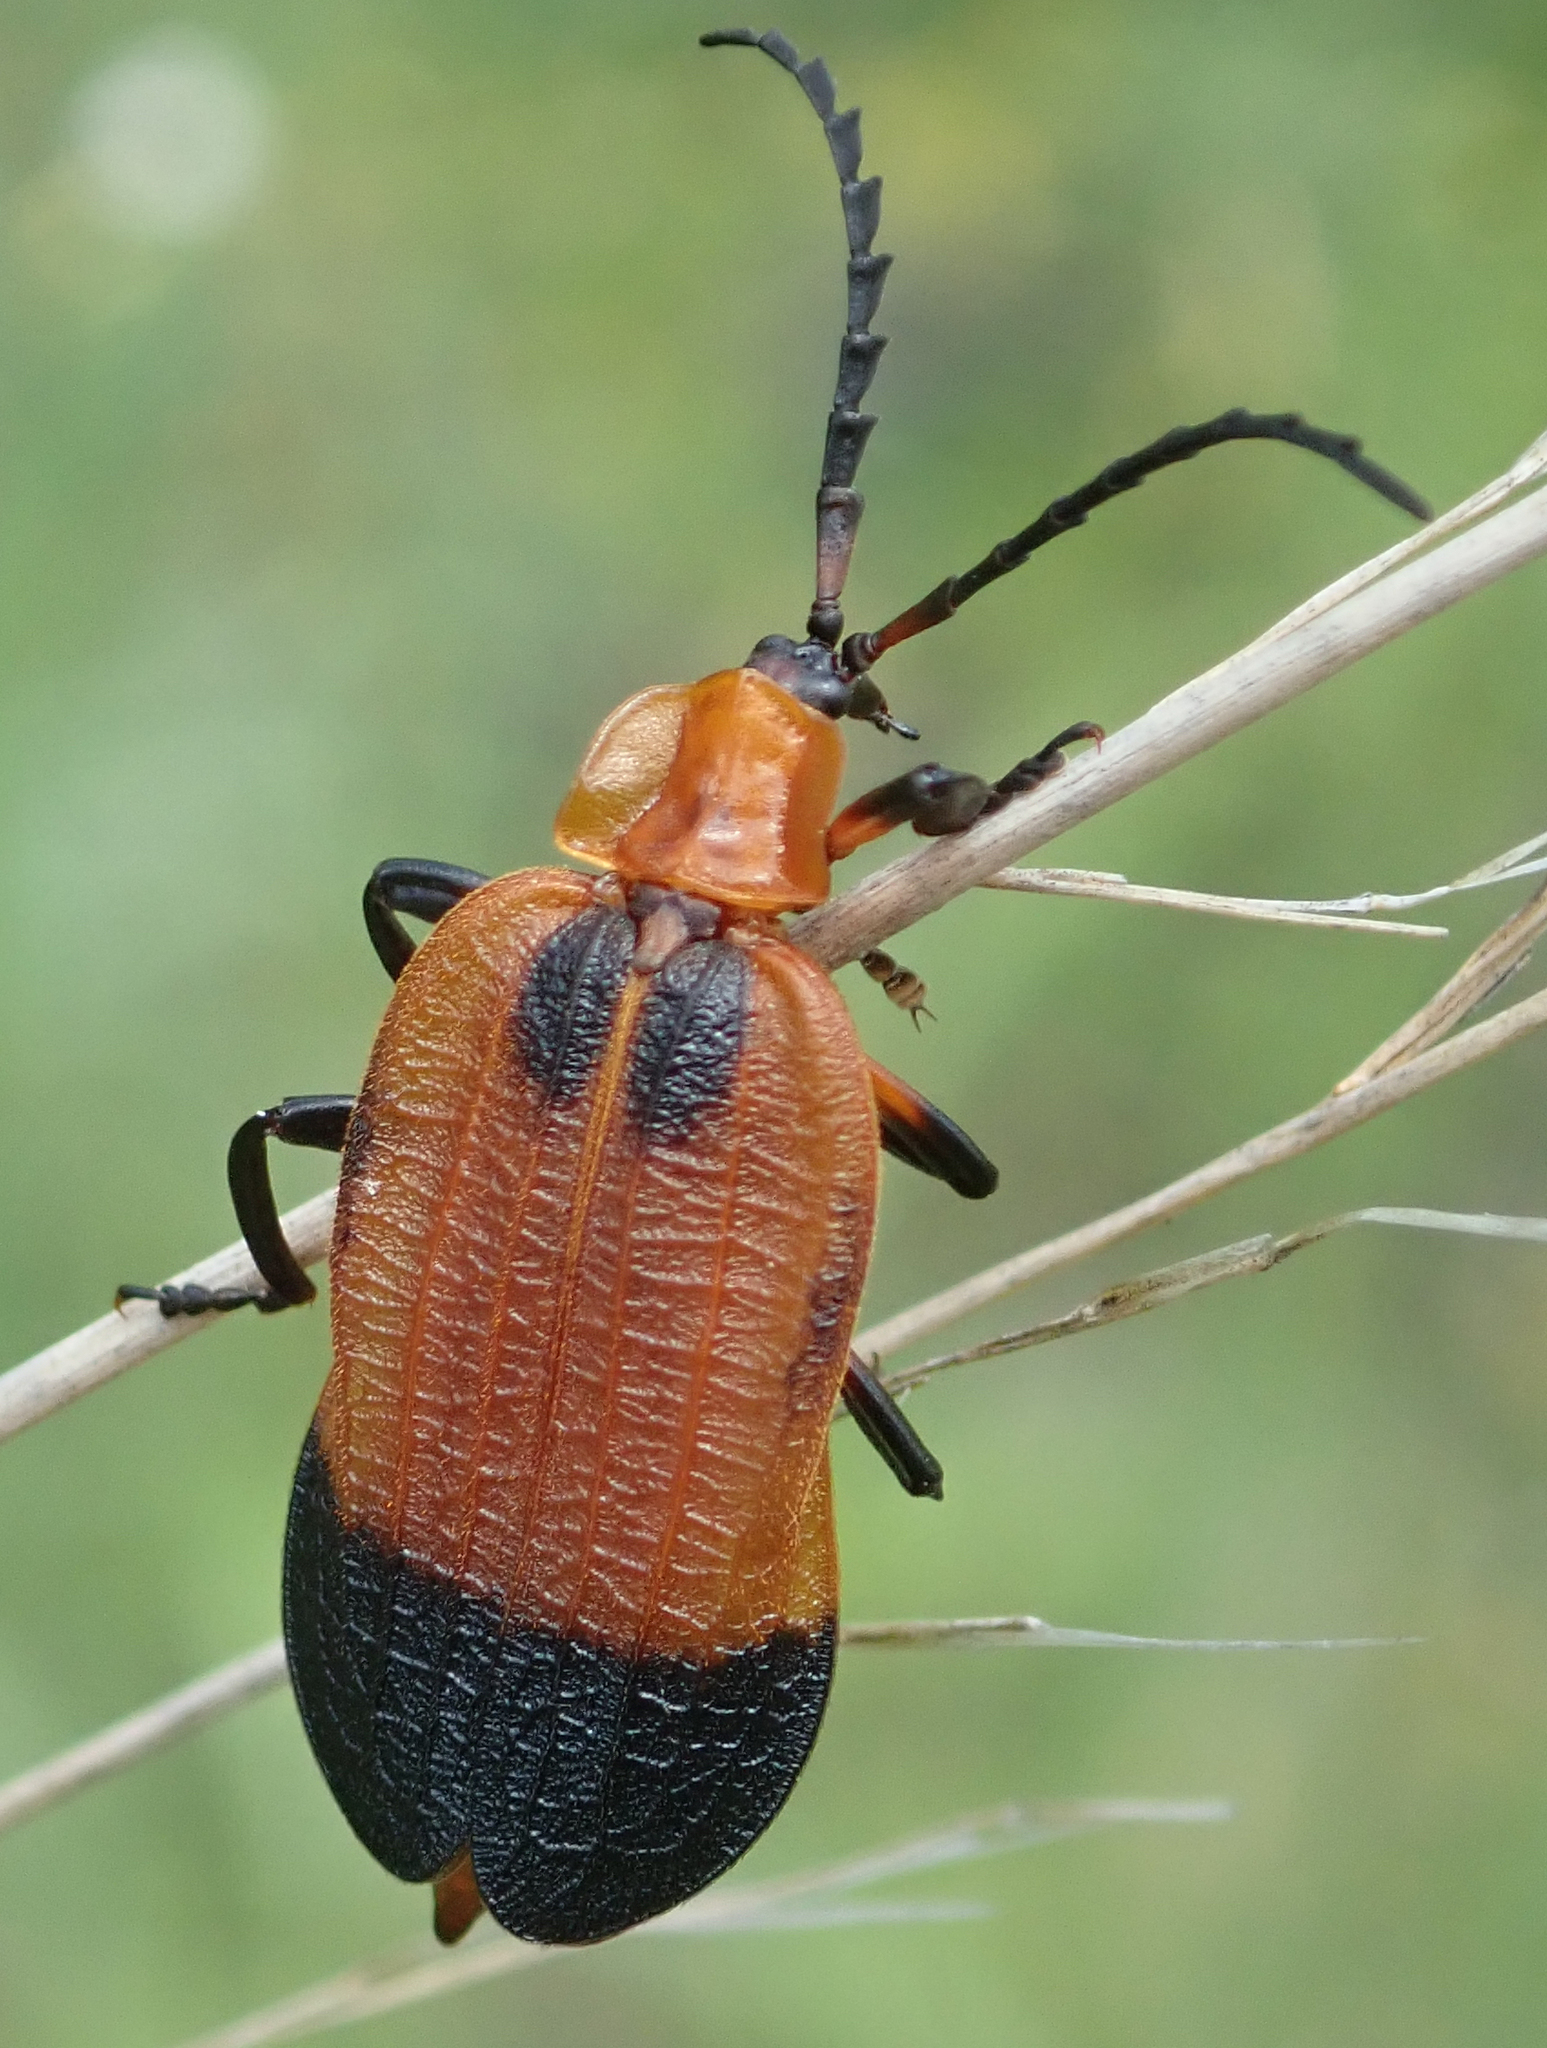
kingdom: Animalia
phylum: Arthropoda
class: Insecta
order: Coleoptera
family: Lycidae
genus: Lycus
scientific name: Lycus
